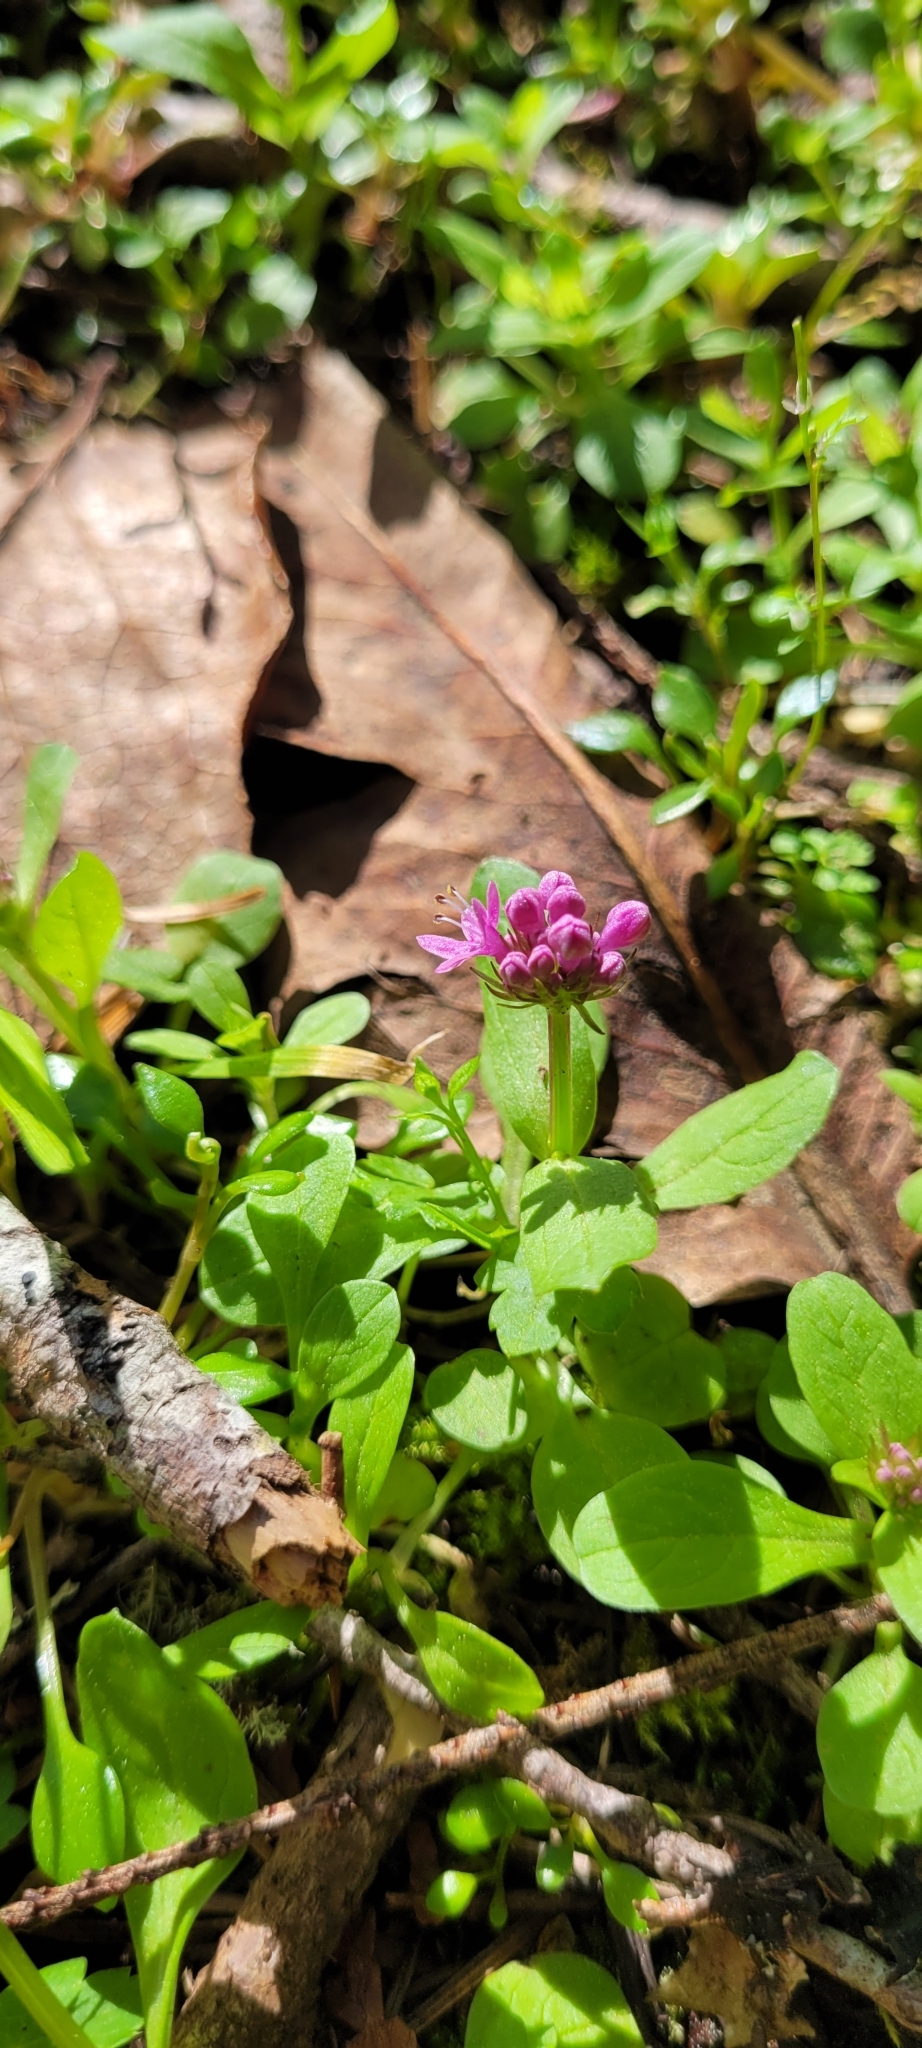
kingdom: Plantae
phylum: Tracheophyta
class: Magnoliopsida
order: Dipsacales
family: Caprifoliaceae
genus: Plectritis
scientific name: Plectritis congesta
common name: Pink plectritis
